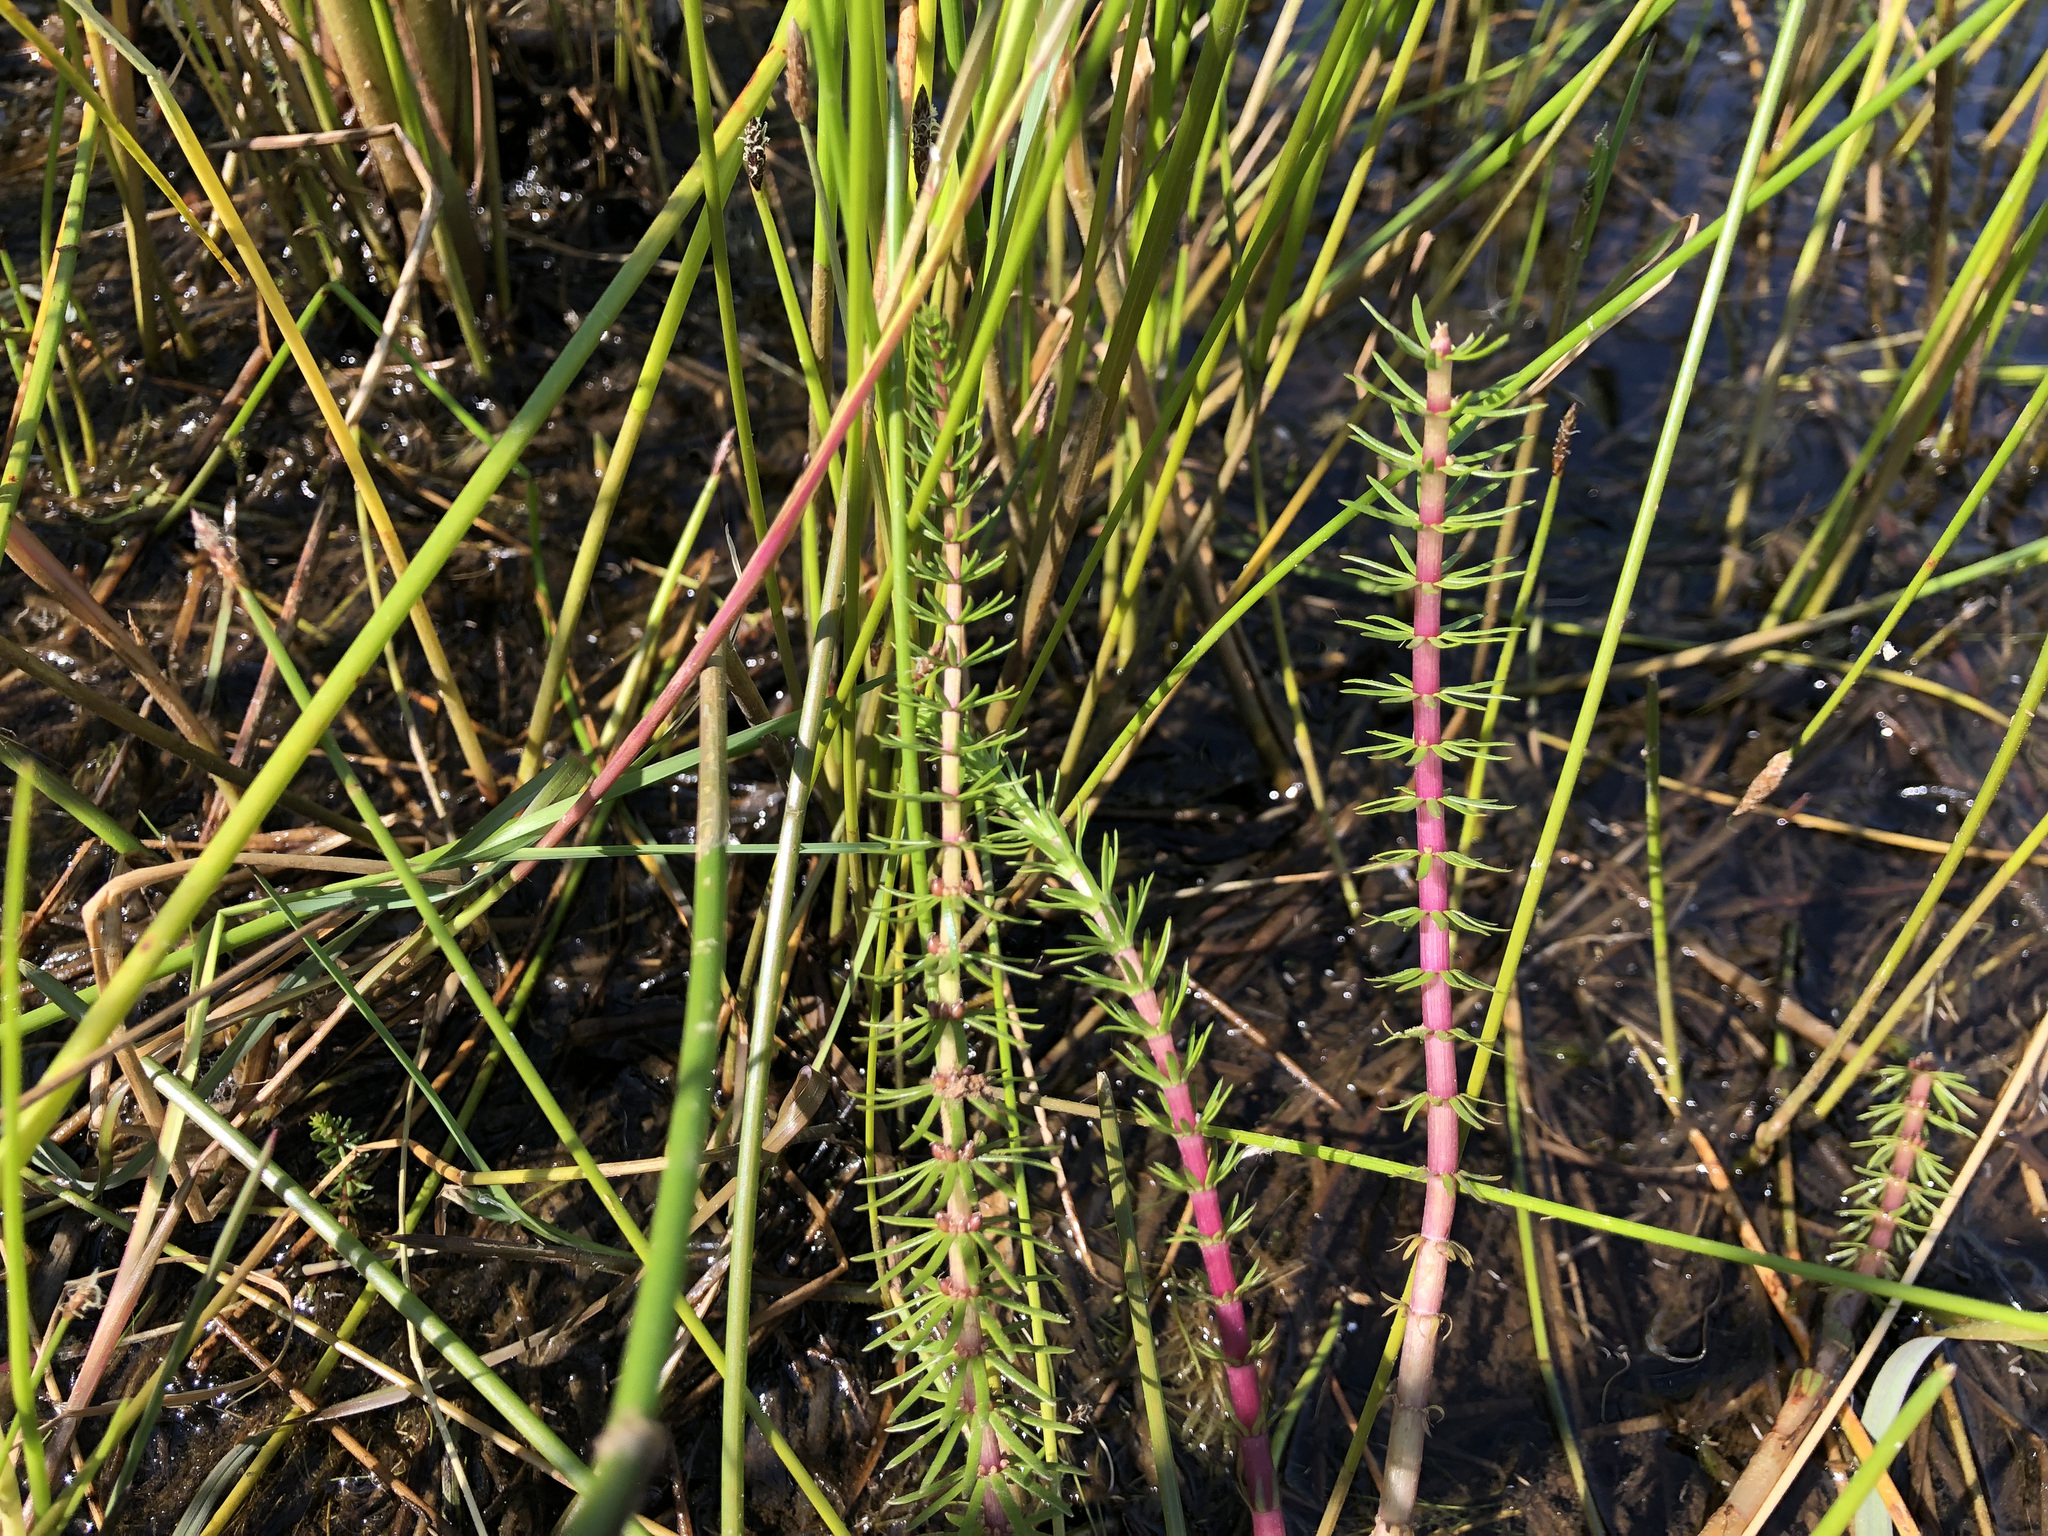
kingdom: Plantae
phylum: Tracheophyta
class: Magnoliopsida
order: Lamiales
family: Plantaginaceae
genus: Hippuris
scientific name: Hippuris vulgaris
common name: Mare's-tail
